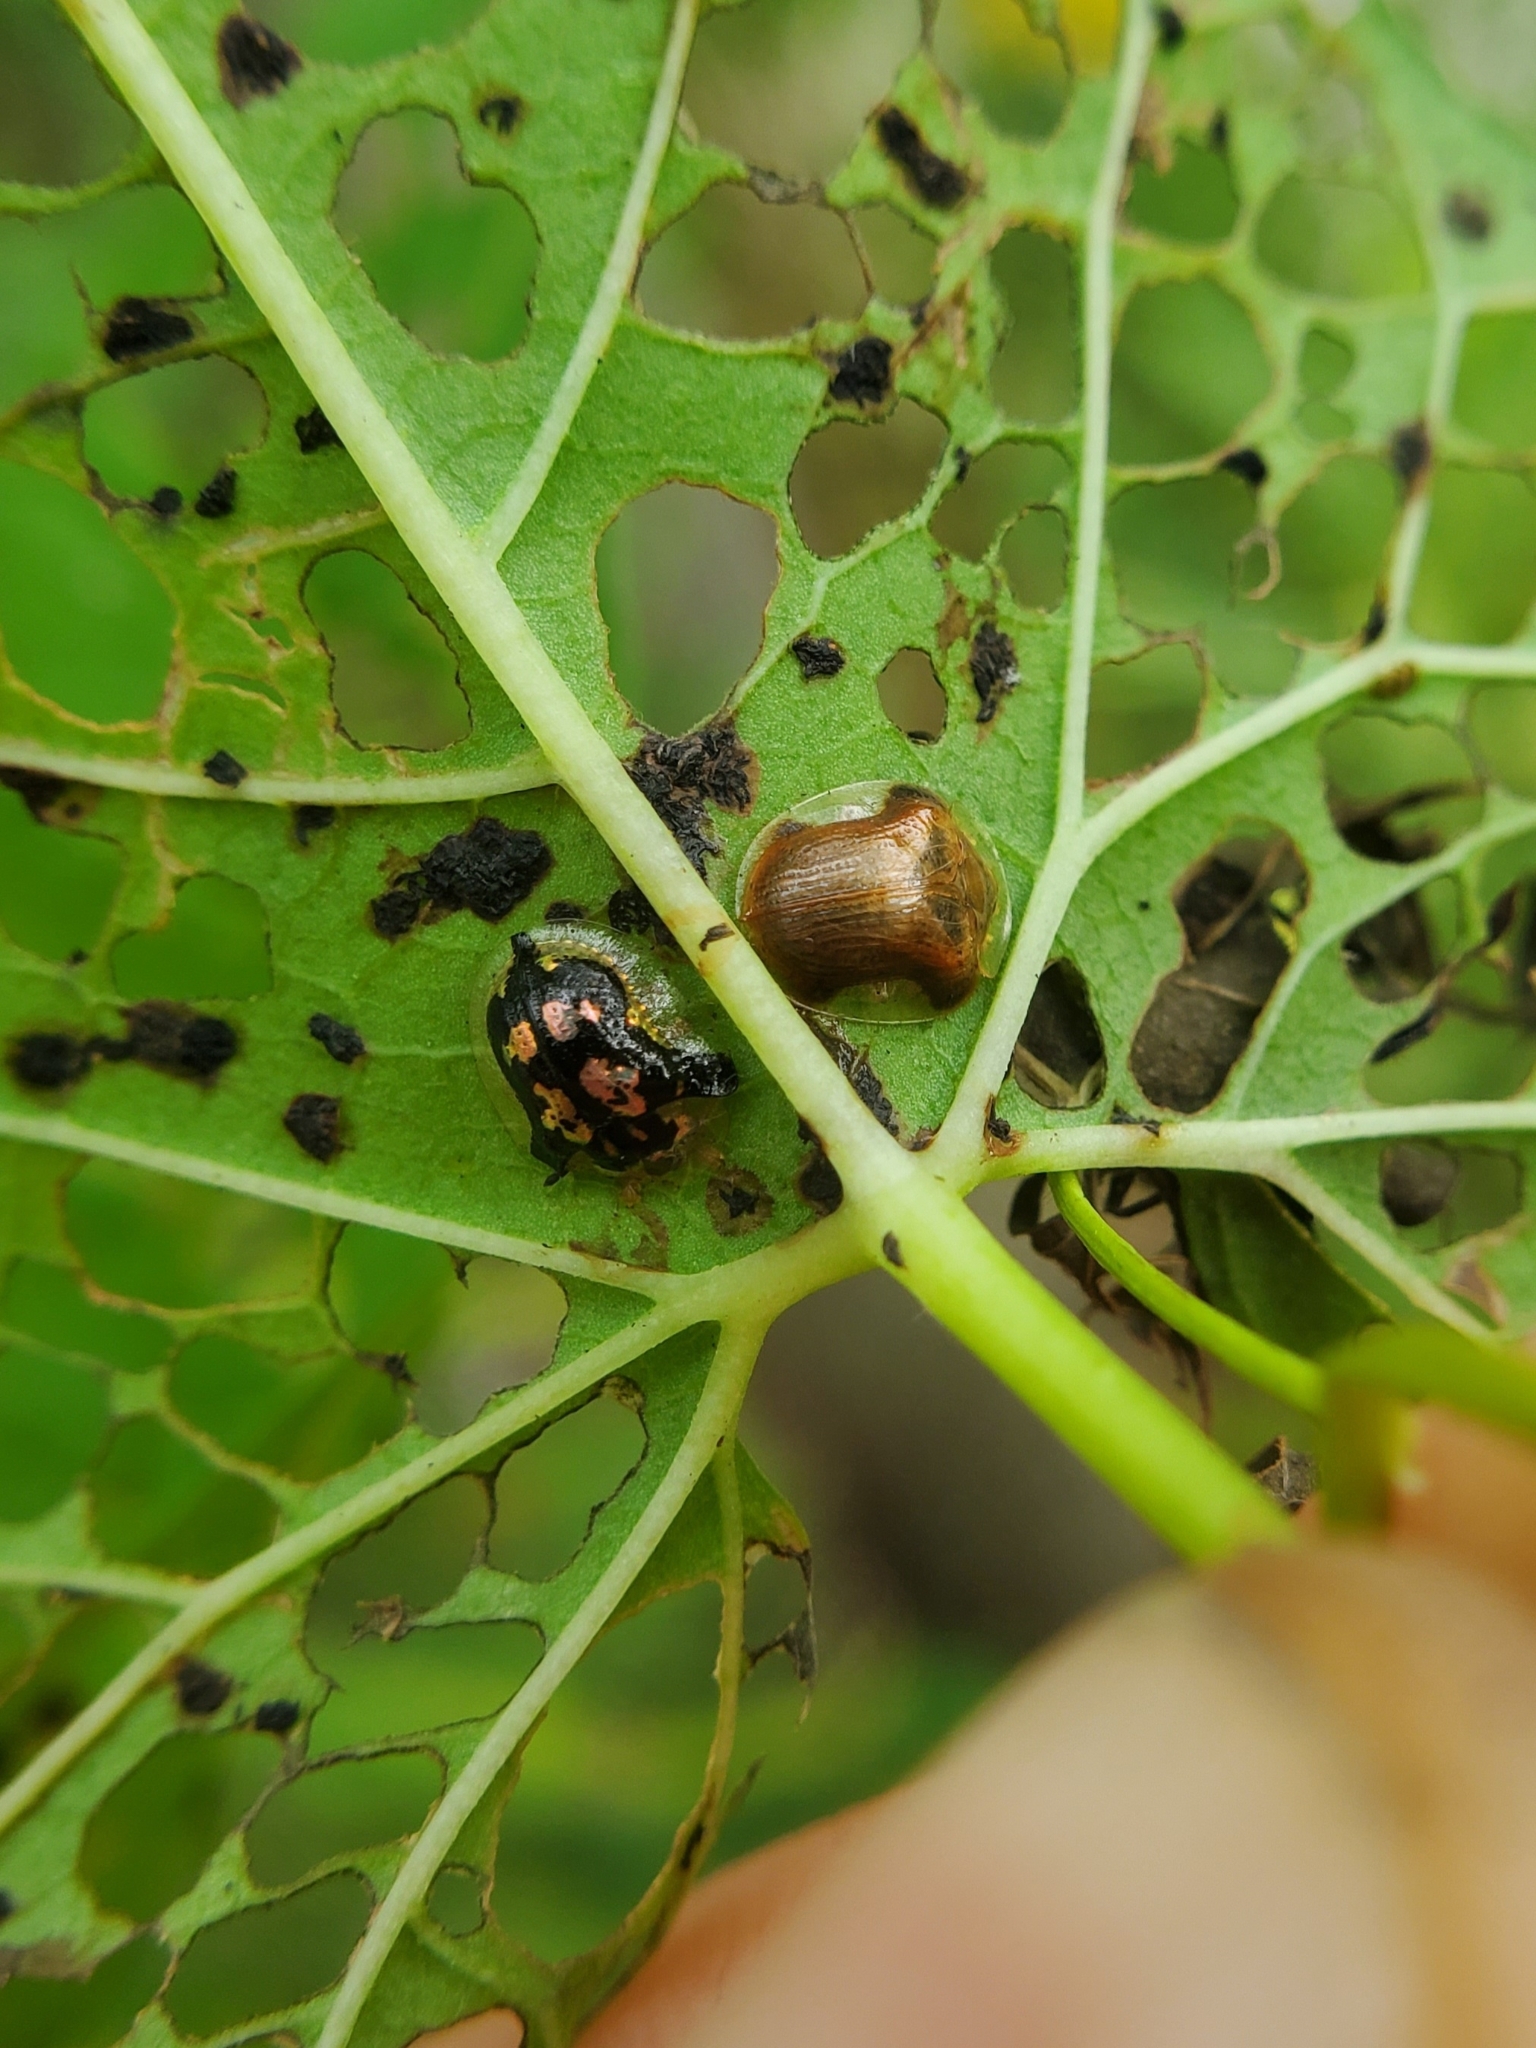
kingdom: Animalia
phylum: Arthropoda
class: Insecta
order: Coleoptera
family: Chrysomelidae
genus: Deloyala
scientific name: Deloyala guttata
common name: Mottled tortoise beetle
